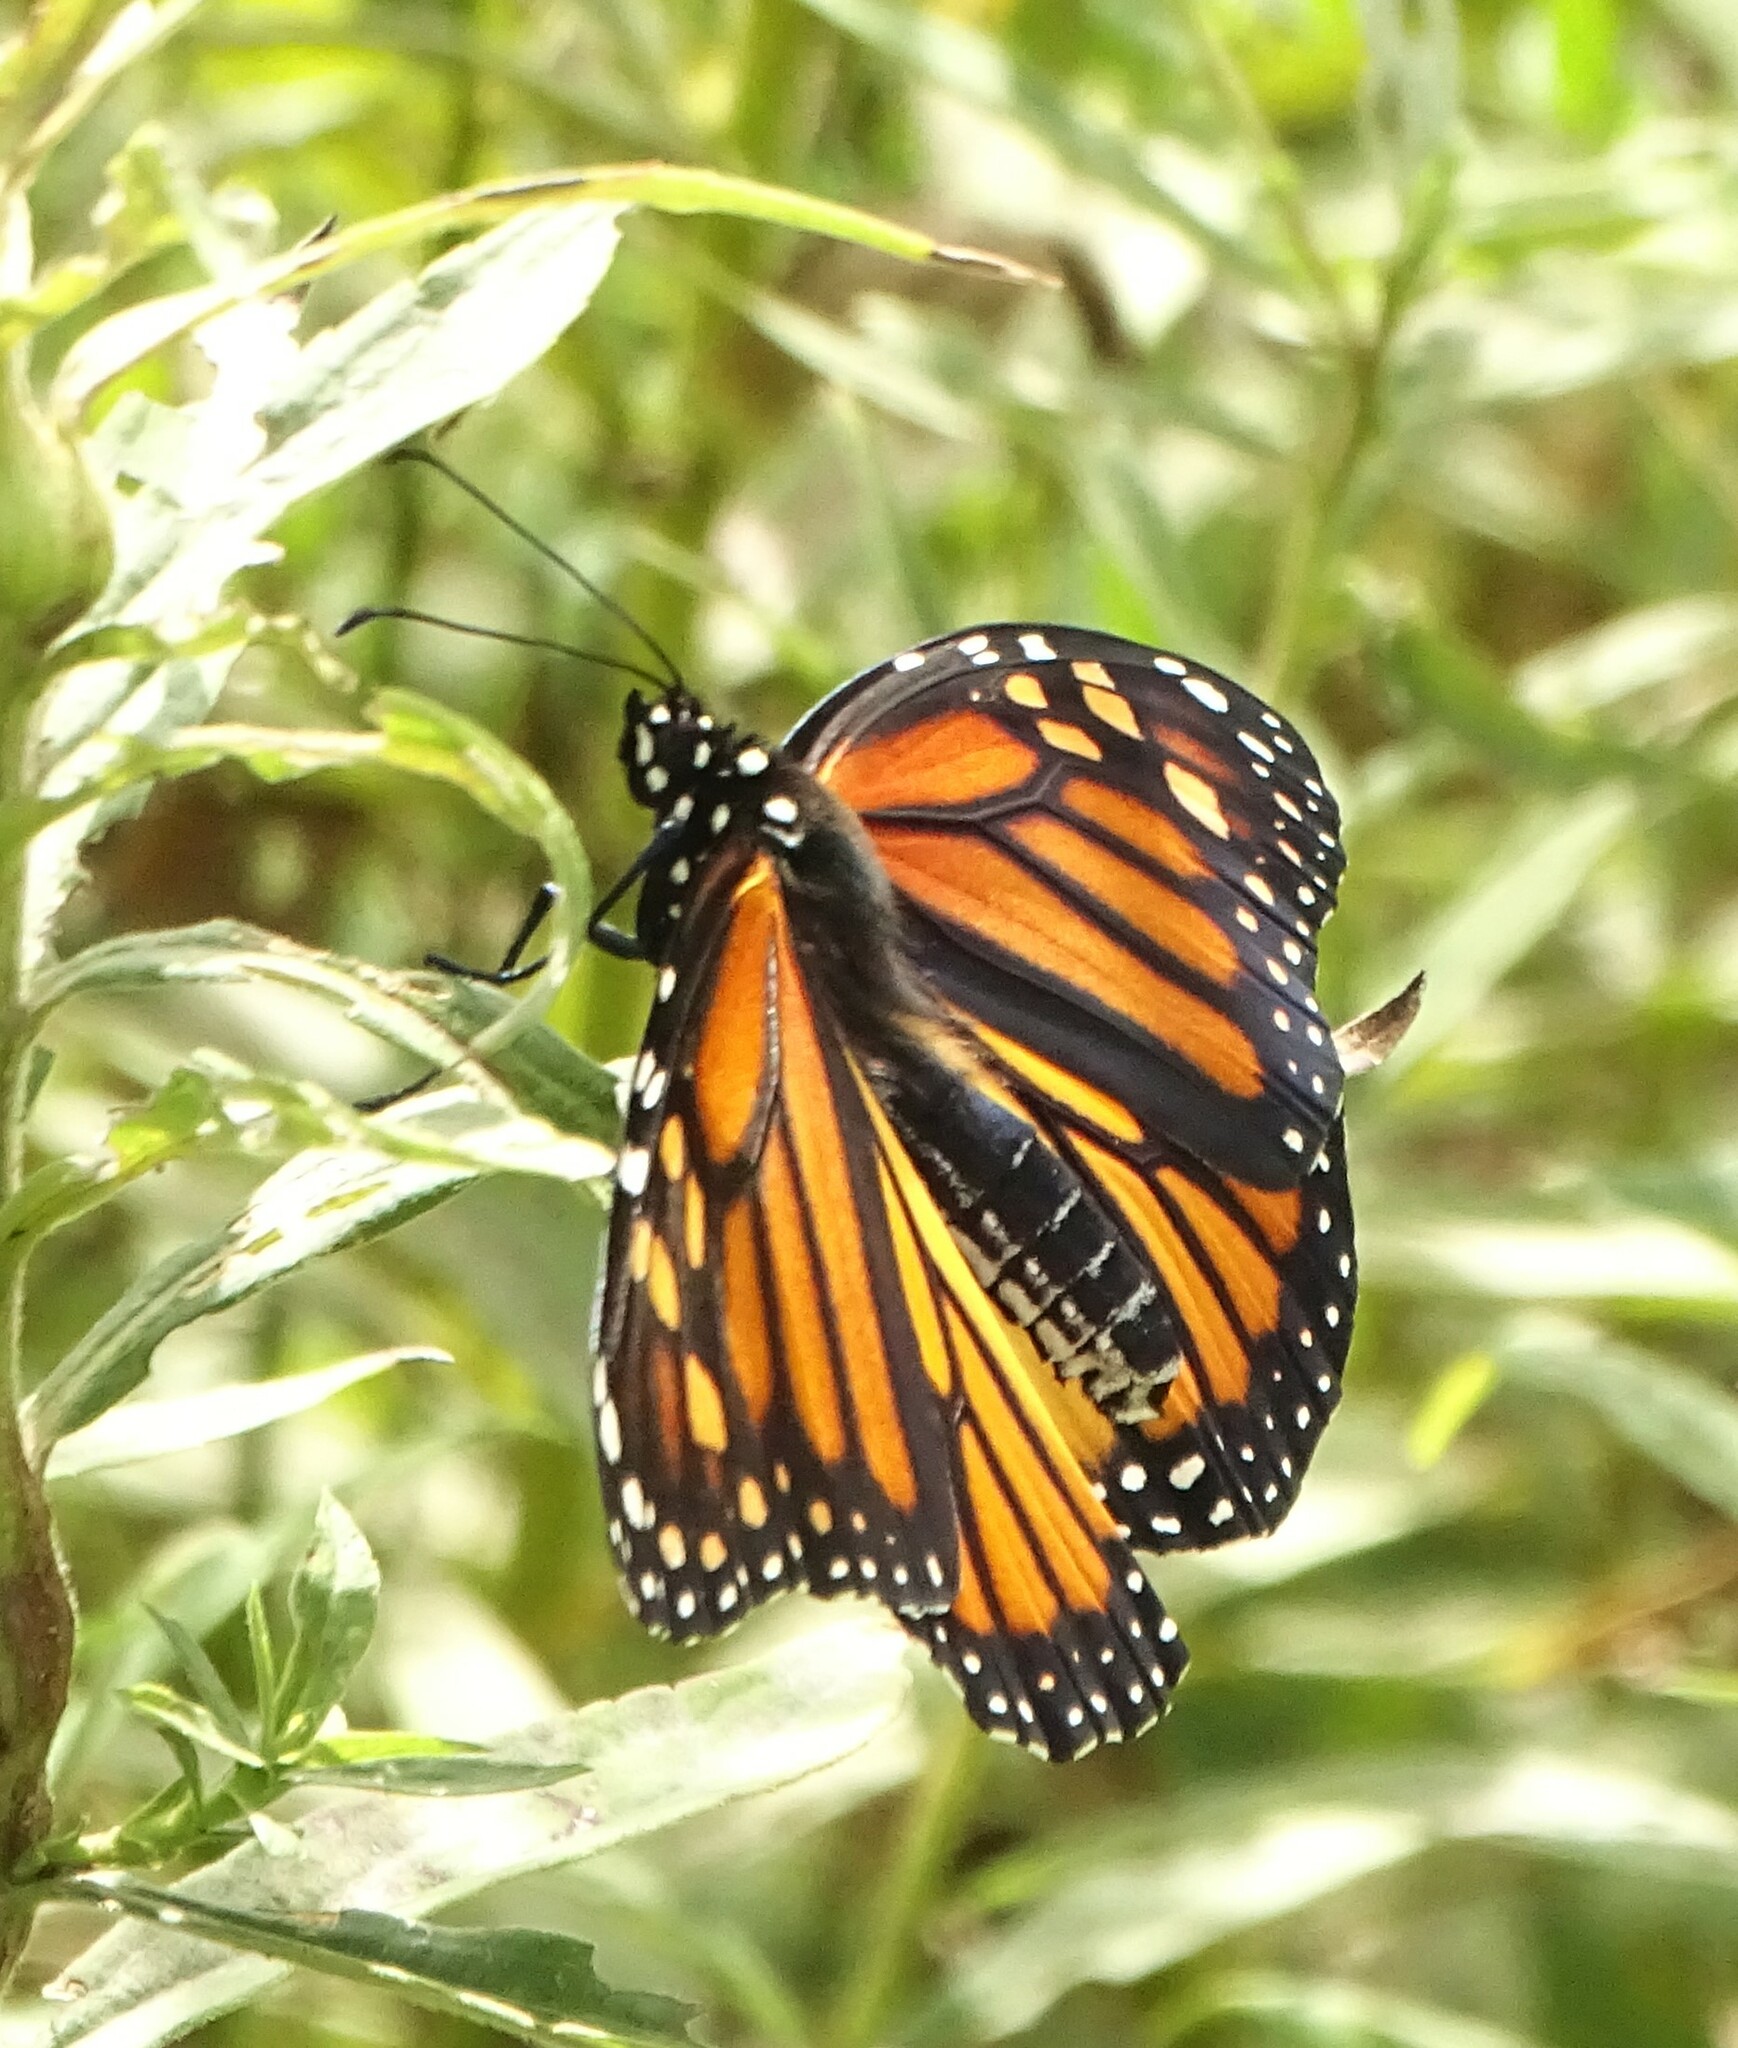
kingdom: Animalia
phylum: Arthropoda
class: Insecta
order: Lepidoptera
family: Nymphalidae
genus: Danaus
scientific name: Danaus plexippus
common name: Monarch
